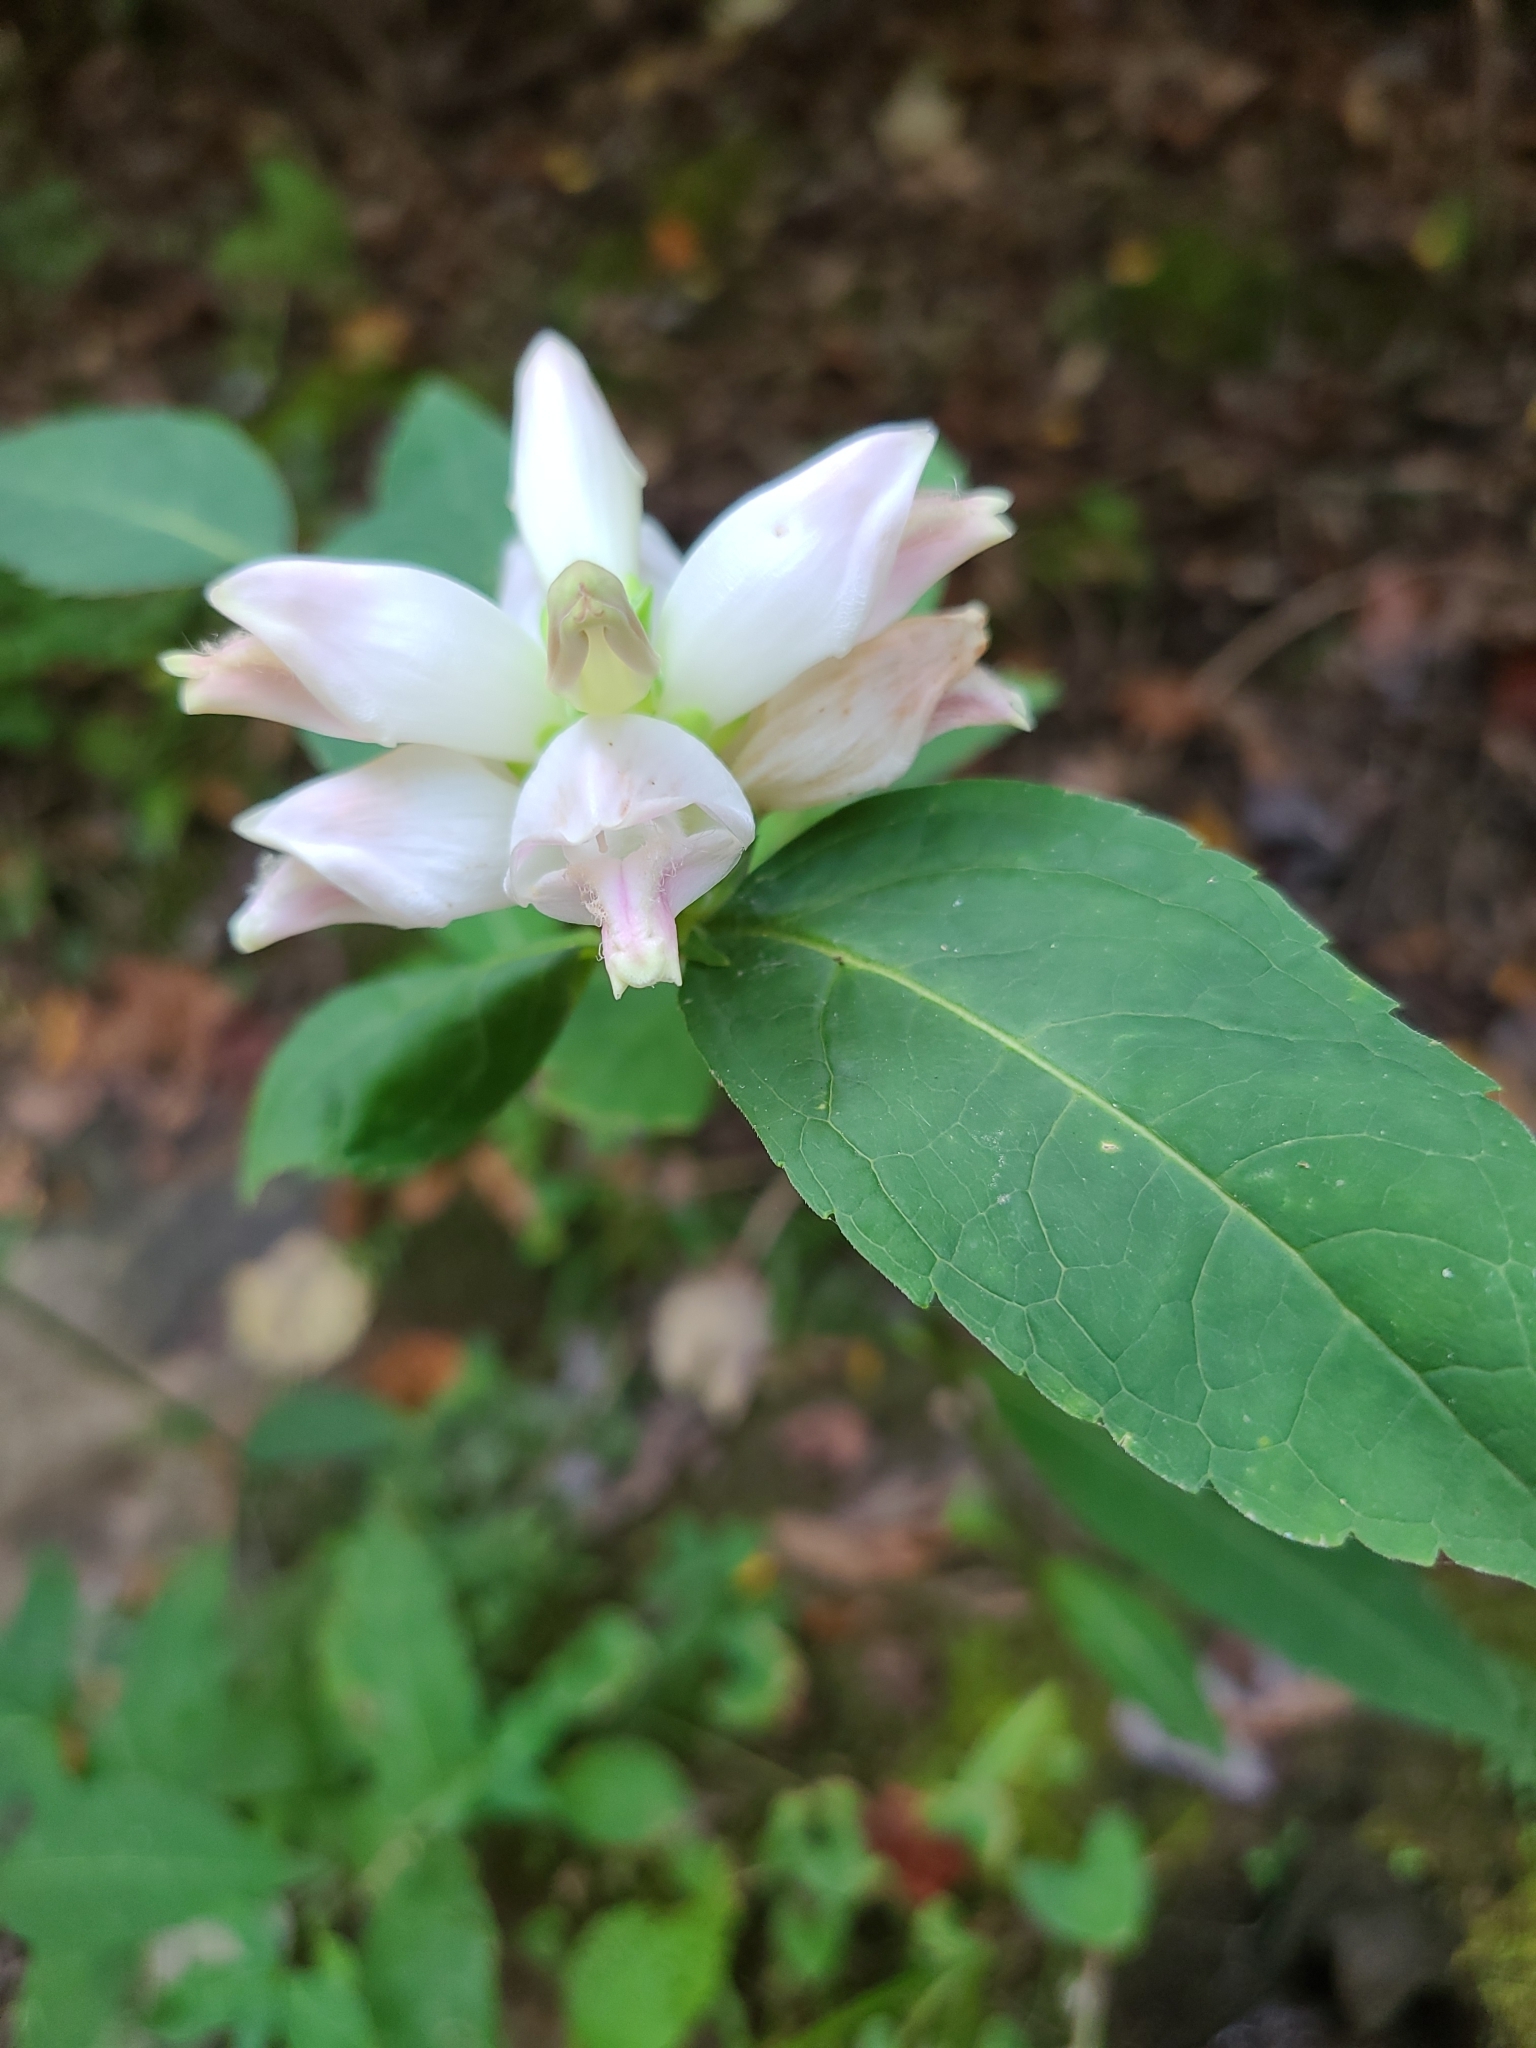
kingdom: Plantae
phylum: Tracheophyta
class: Magnoliopsida
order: Lamiales
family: Plantaginaceae
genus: Chelone
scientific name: Chelone glabra
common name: Snakehead
